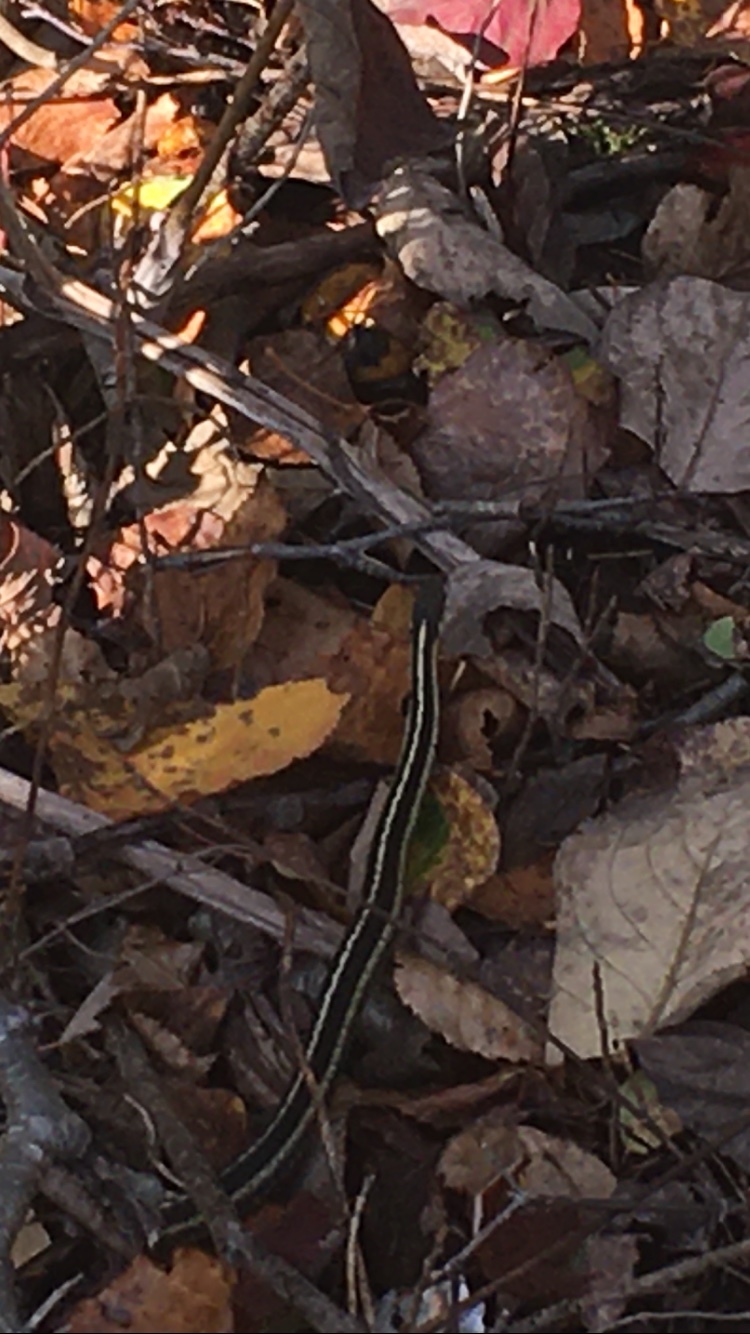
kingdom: Animalia
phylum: Chordata
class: Squamata
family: Colubridae
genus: Thamnophis
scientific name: Thamnophis sirtalis
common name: Common garter snake
